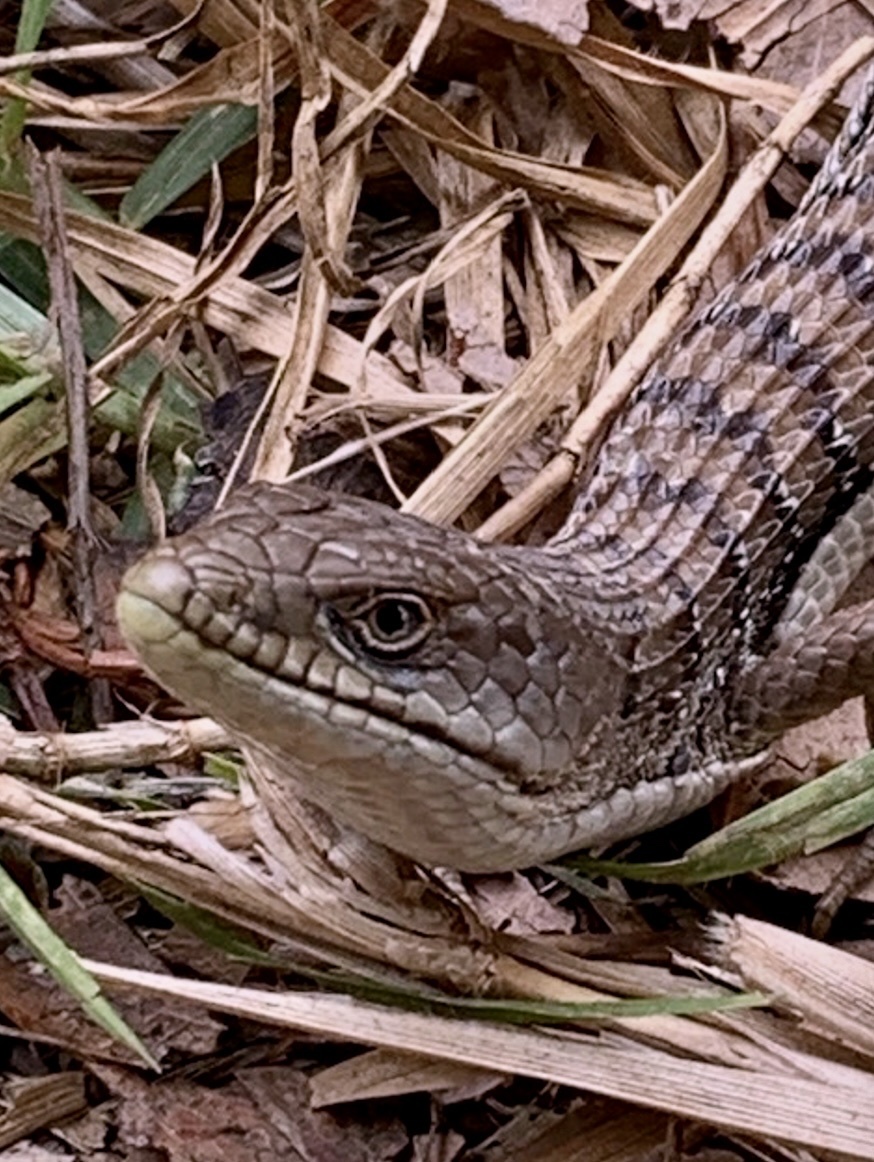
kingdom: Animalia
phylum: Chordata
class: Squamata
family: Anguidae
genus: Elgaria
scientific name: Elgaria multicarinata
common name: Southern alligator lizard
